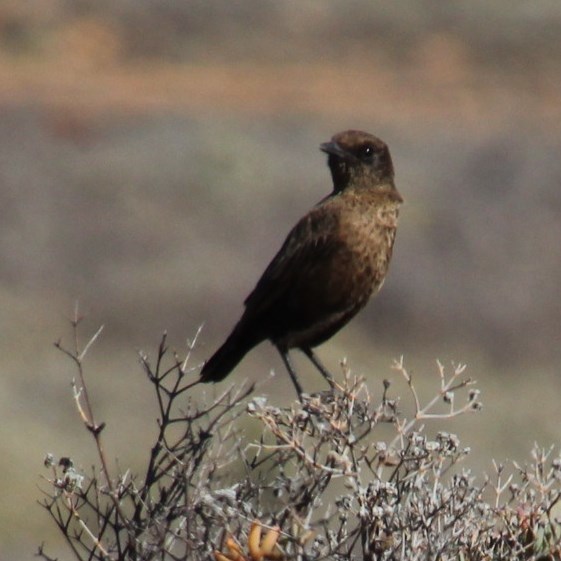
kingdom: Animalia
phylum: Chordata
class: Aves
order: Passeriformes
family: Muscicapidae
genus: Myrmecocichla
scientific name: Myrmecocichla formicivora
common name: Ant-eating chat
